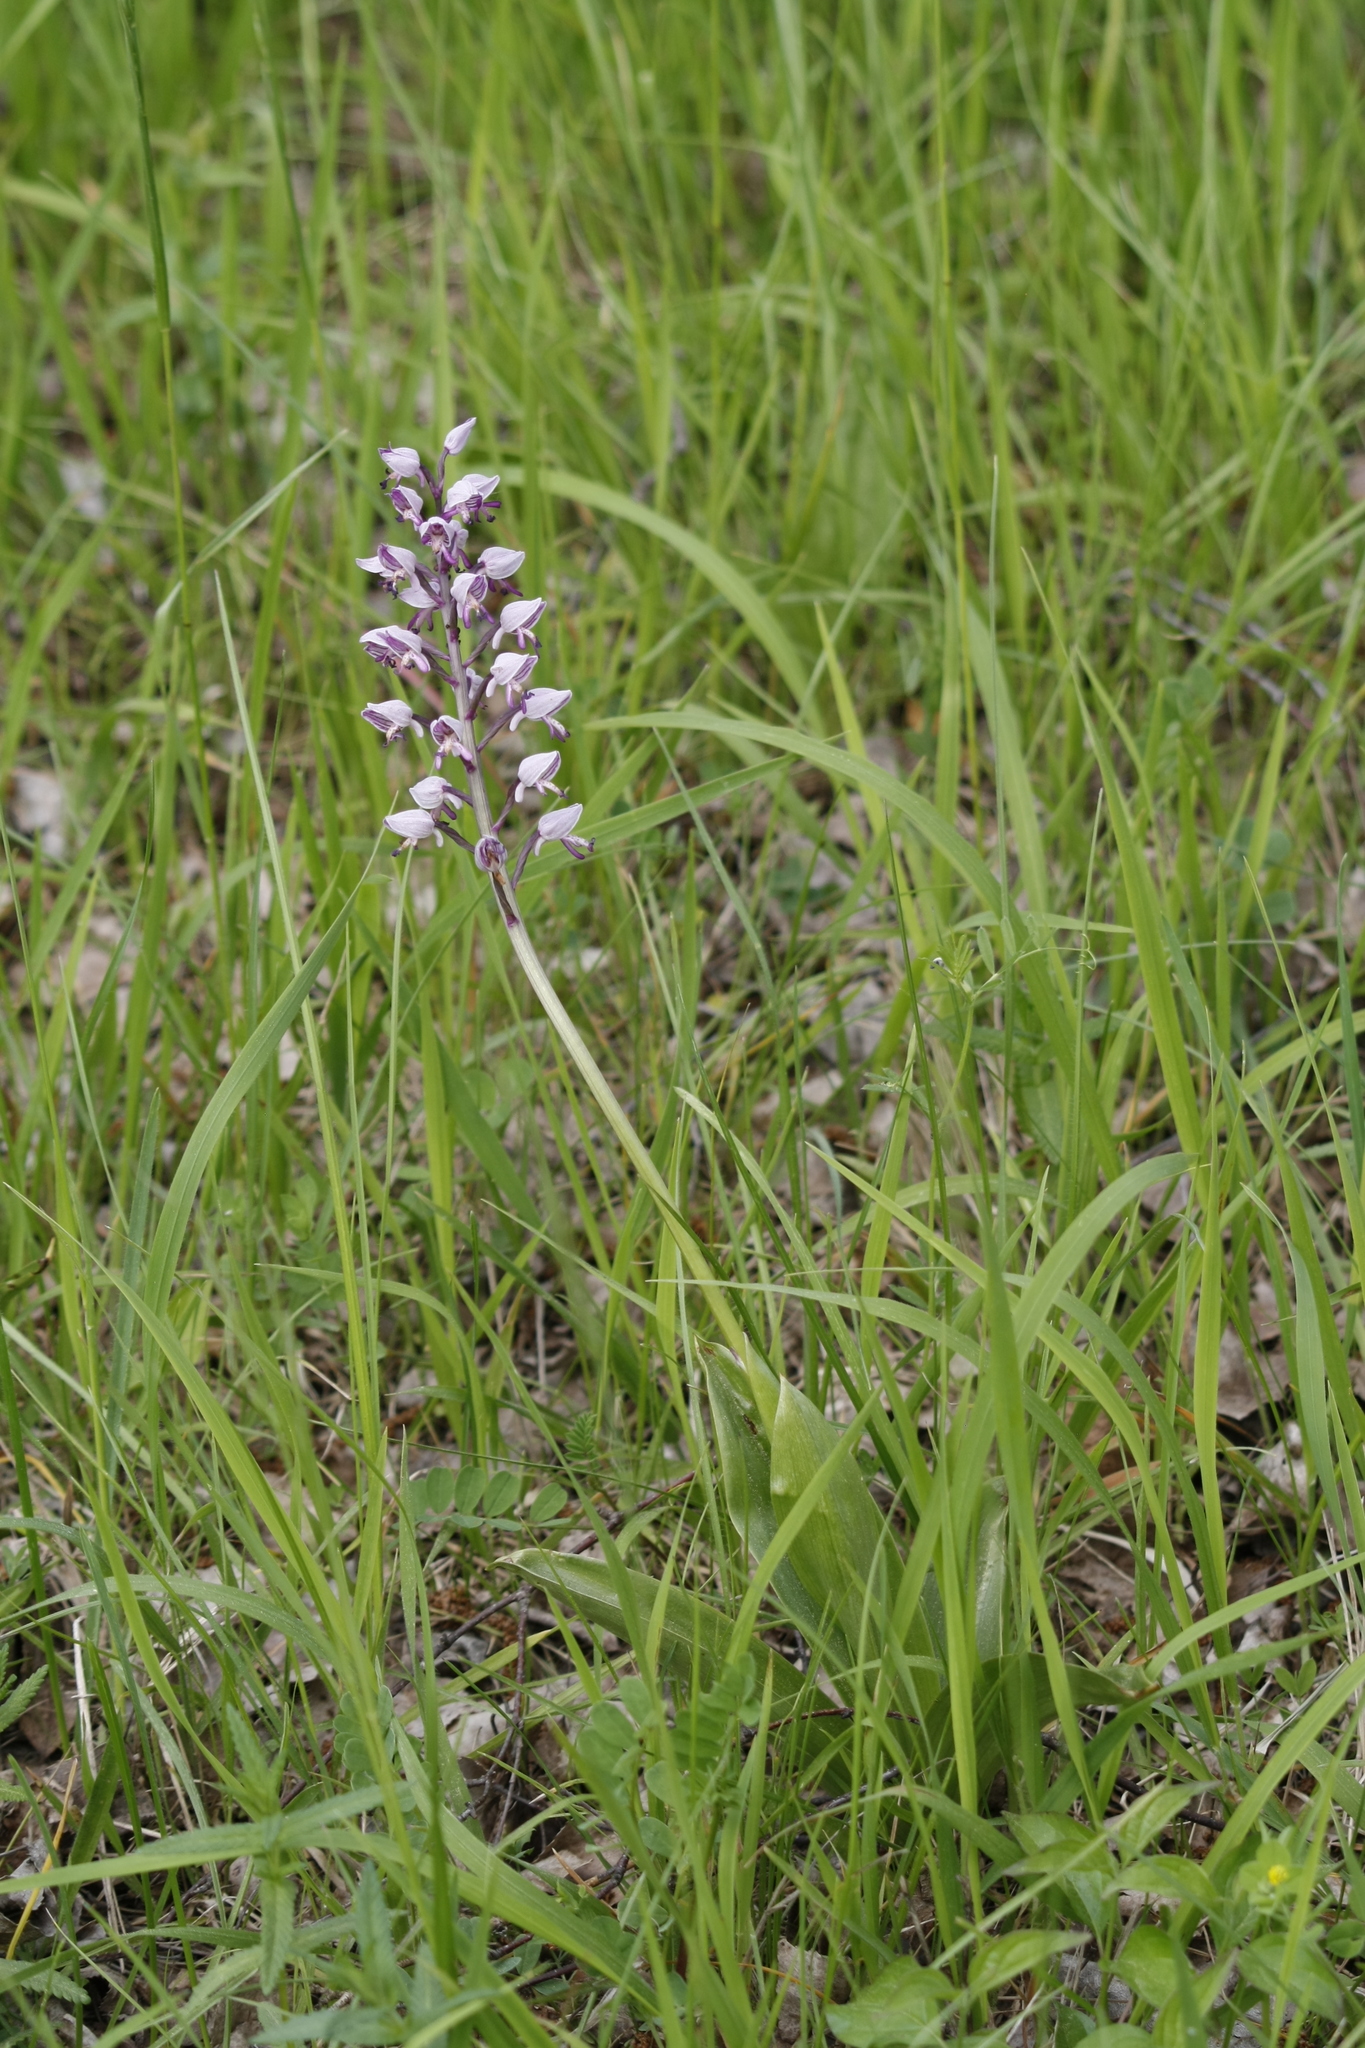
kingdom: Plantae
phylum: Tracheophyta
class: Liliopsida
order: Asparagales
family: Orchidaceae
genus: Orchis
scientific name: Orchis militaris
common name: Military orchid
